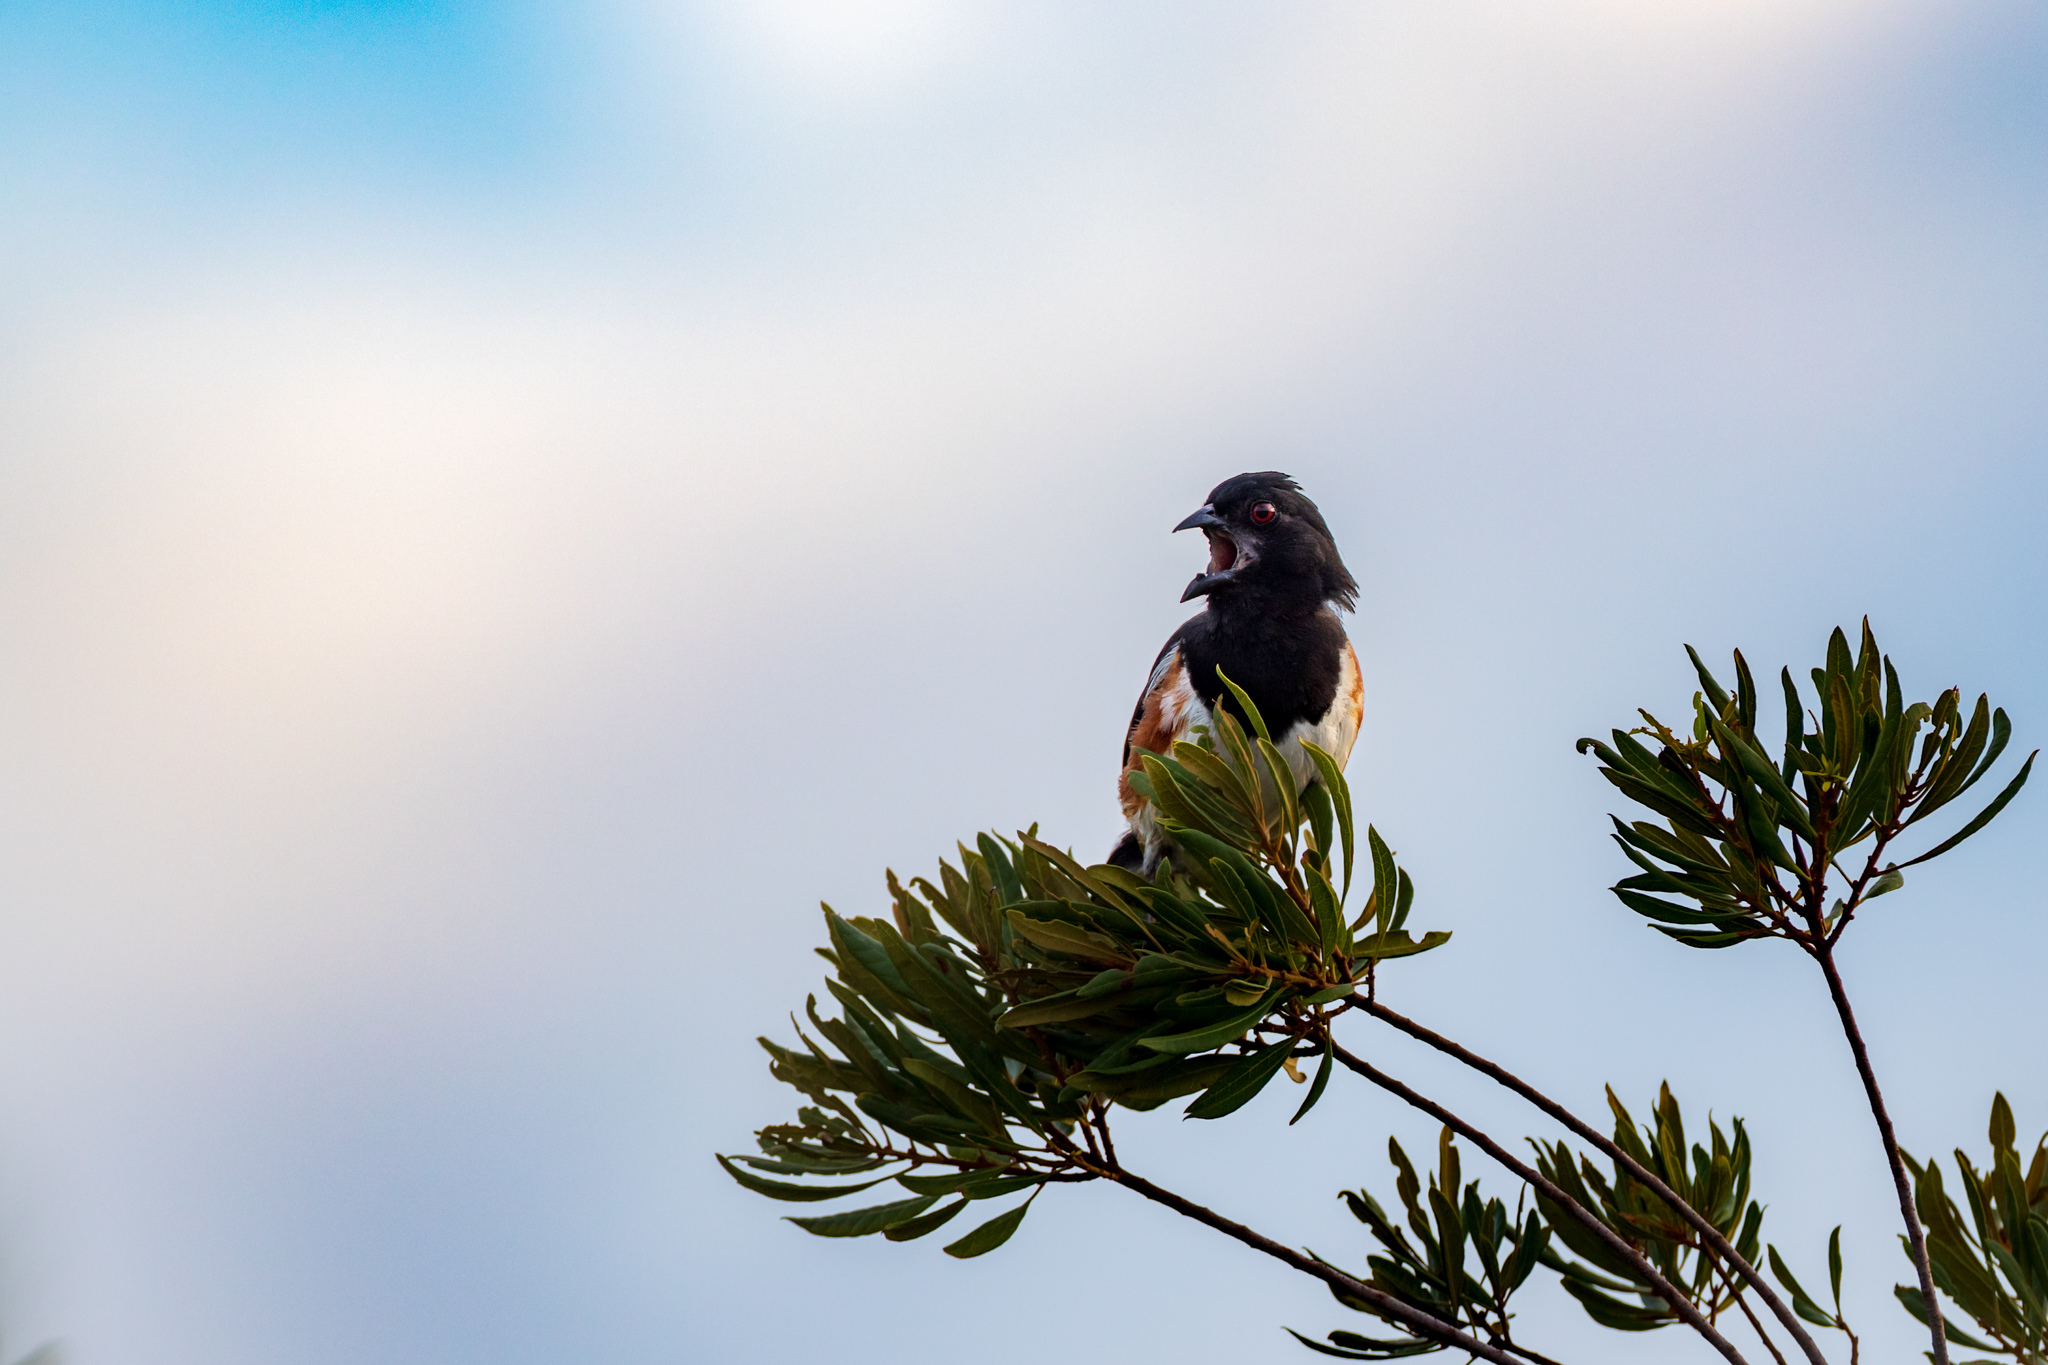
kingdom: Animalia
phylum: Chordata
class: Aves
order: Passeriformes
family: Passerellidae
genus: Pipilo
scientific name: Pipilo erythrophthalmus
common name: Eastern towhee
